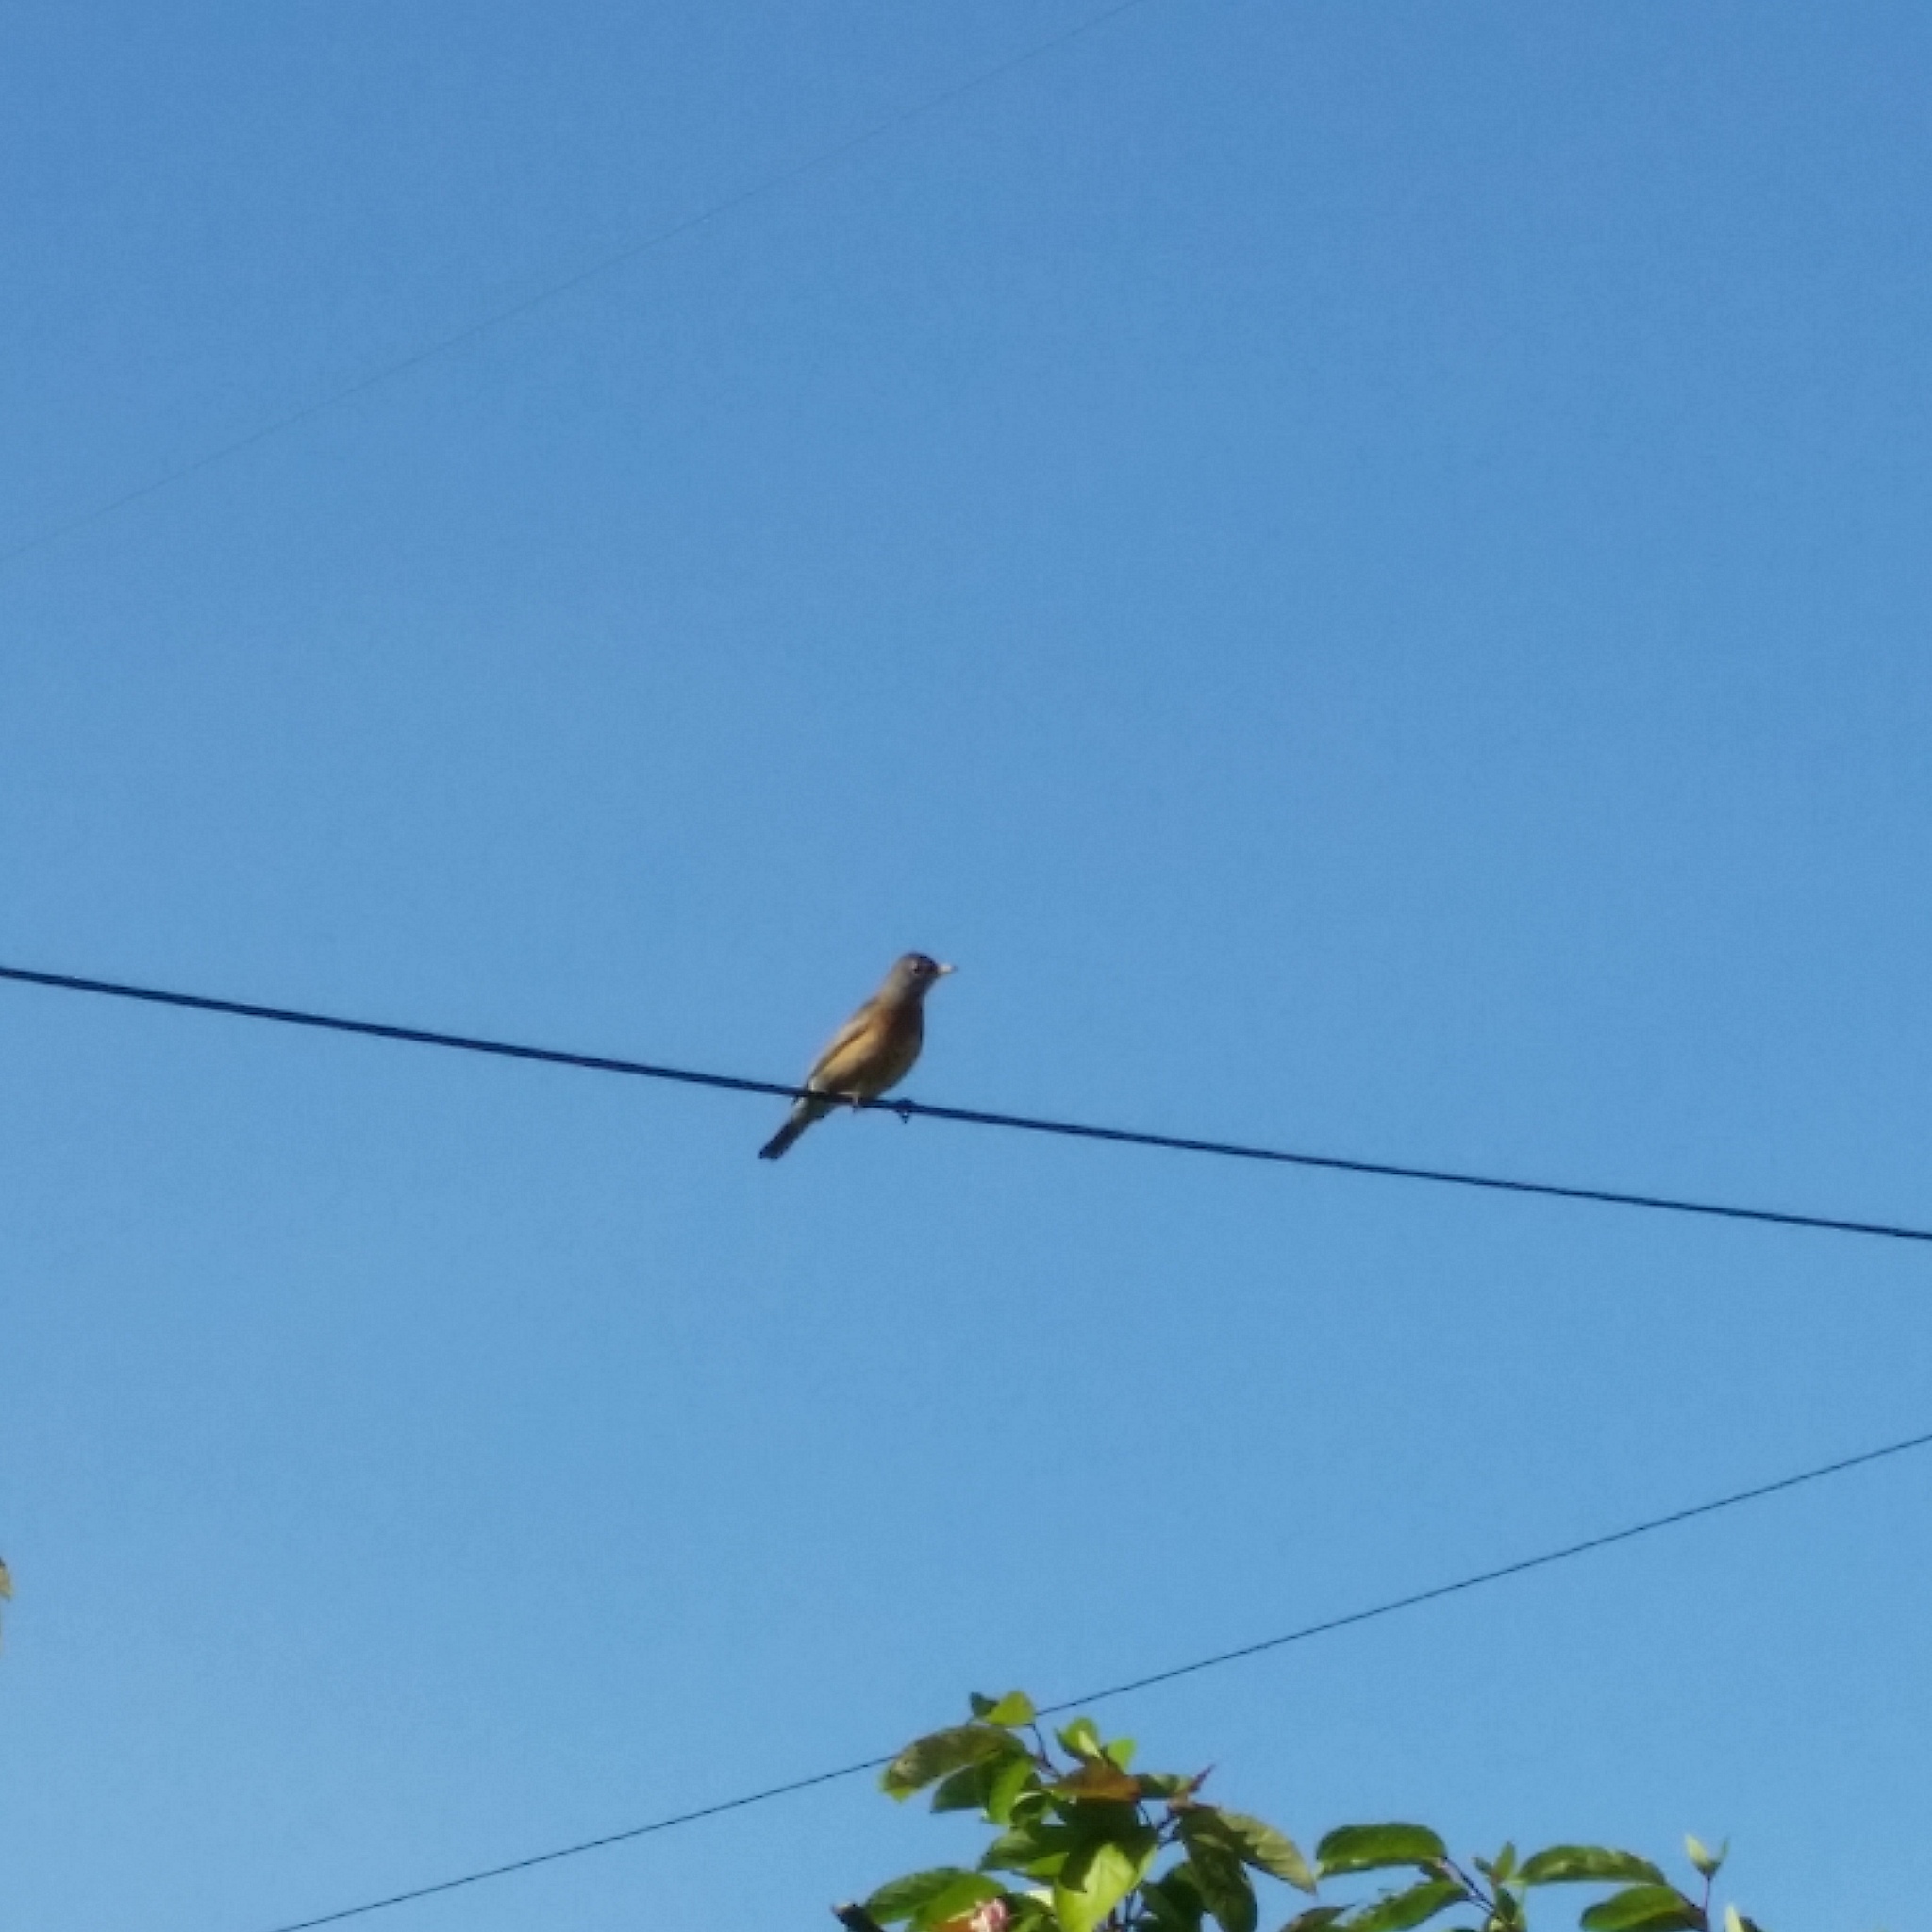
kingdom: Animalia
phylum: Chordata
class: Aves
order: Passeriformes
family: Turdidae
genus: Turdus
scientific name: Turdus migratorius
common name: American robin
